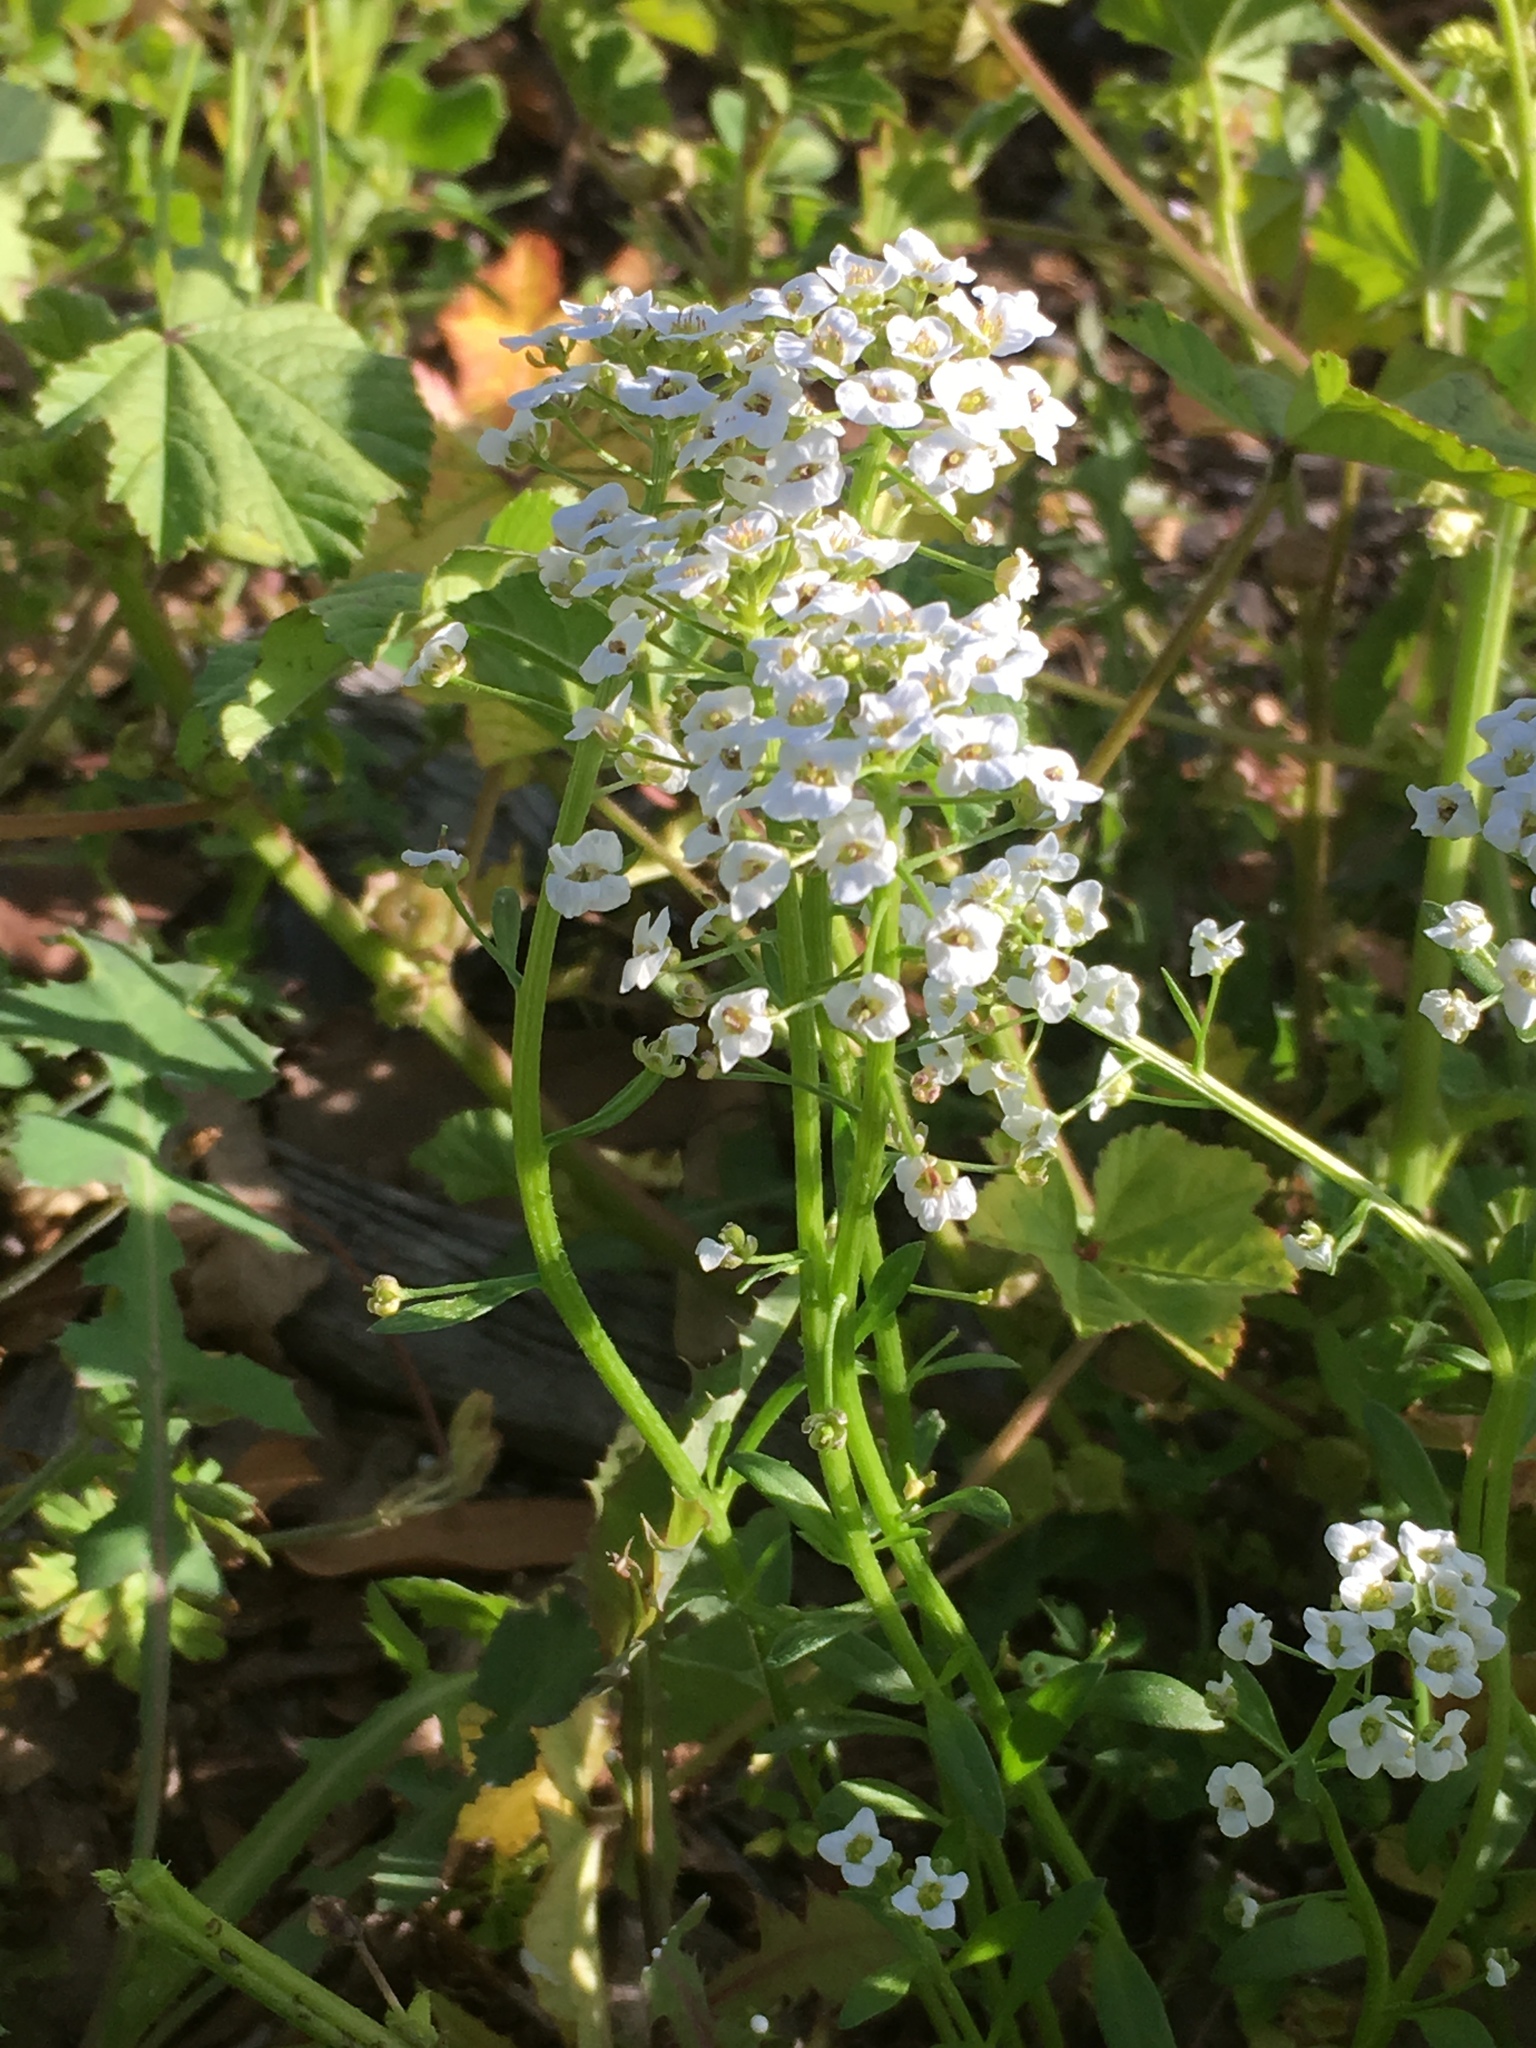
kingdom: Plantae
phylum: Tracheophyta
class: Magnoliopsida
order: Brassicales
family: Brassicaceae
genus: Lobularia
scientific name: Lobularia maritima
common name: Sweet alison
